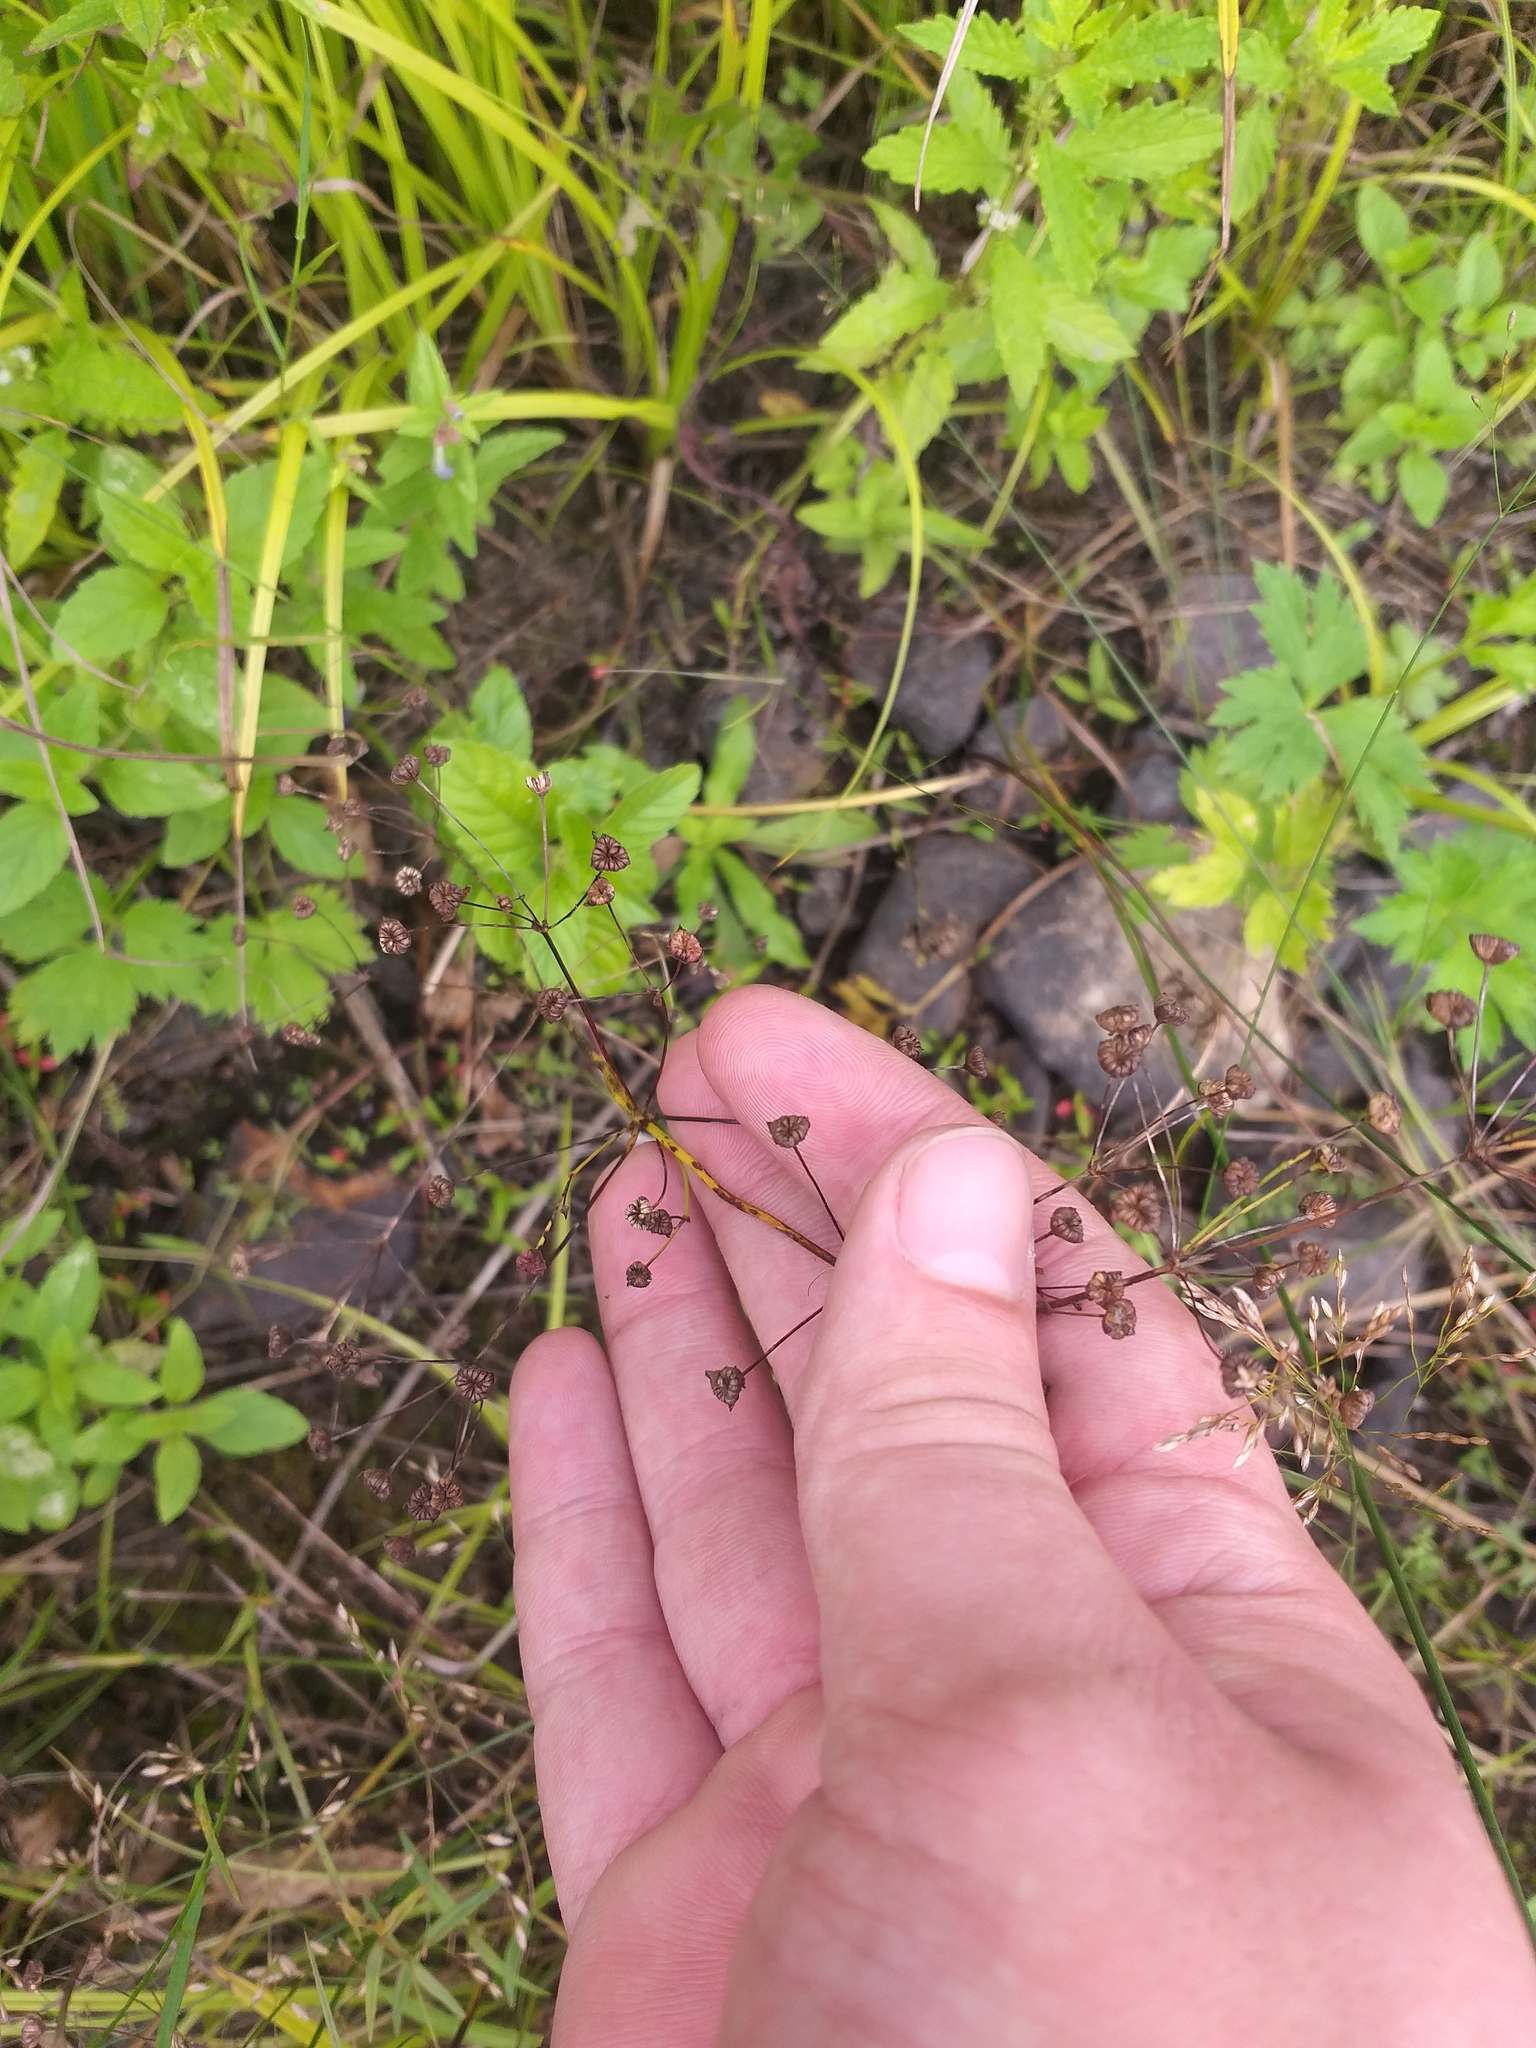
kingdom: Plantae
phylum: Tracheophyta
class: Liliopsida
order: Alismatales
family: Alismataceae
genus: Alisma
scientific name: Alisma plantago-aquatica
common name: Water-plantain
